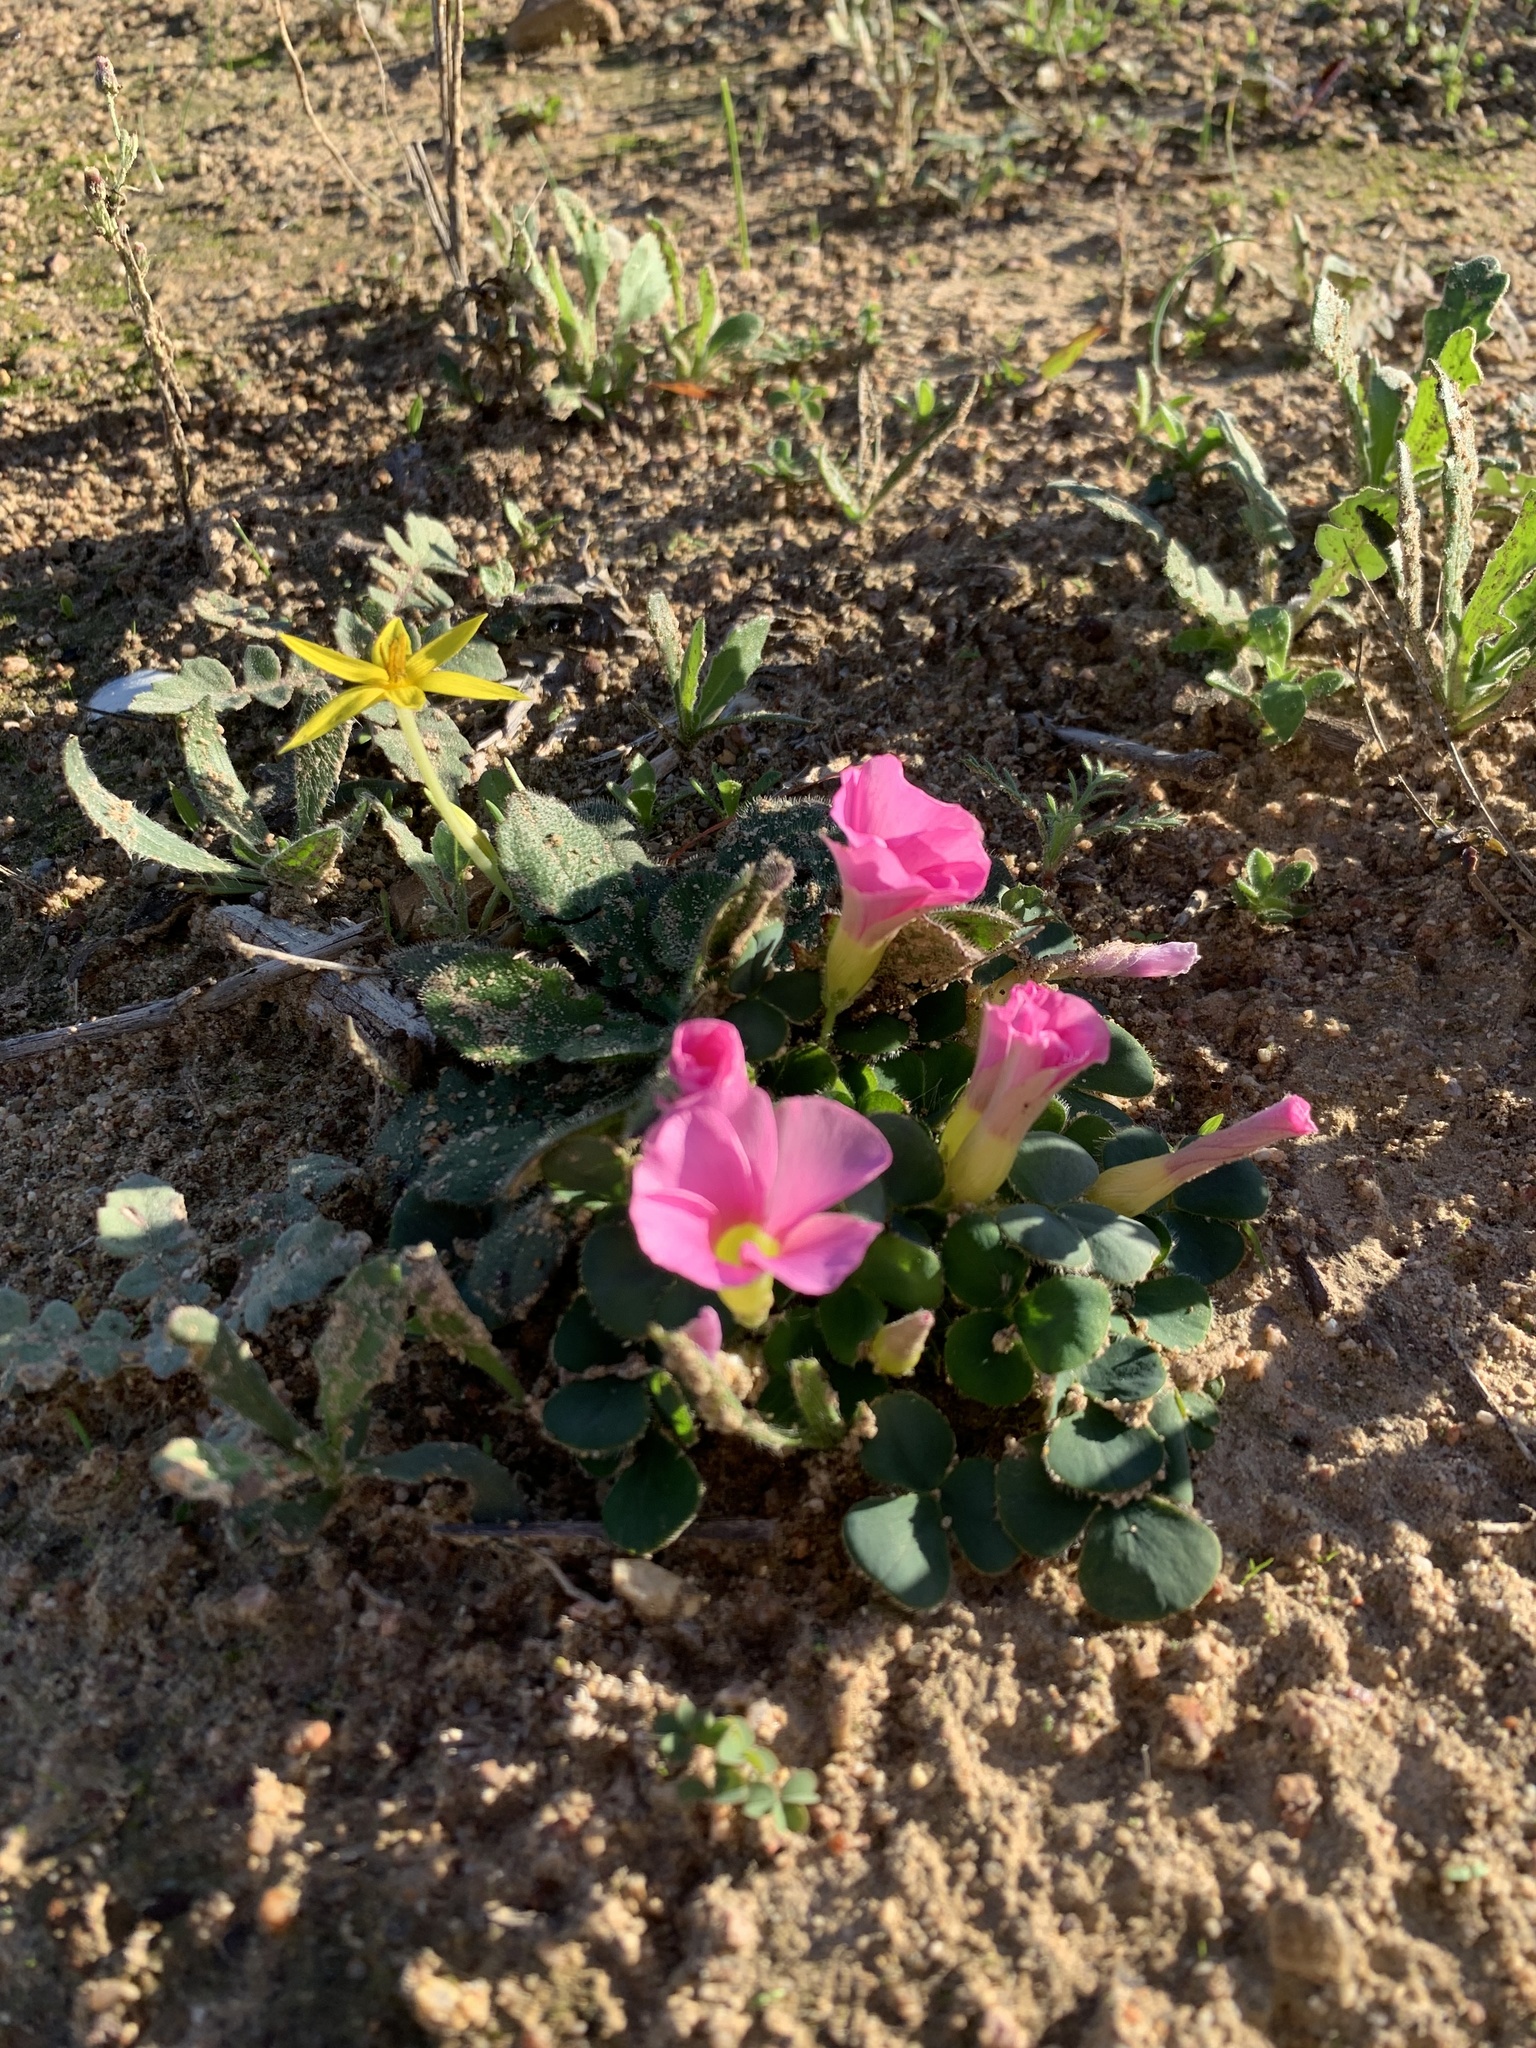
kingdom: Plantae
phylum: Tracheophyta
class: Magnoliopsida
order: Oxalidales
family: Oxalidaceae
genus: Oxalis
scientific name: Oxalis purpurea
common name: Purple woodsorrel
